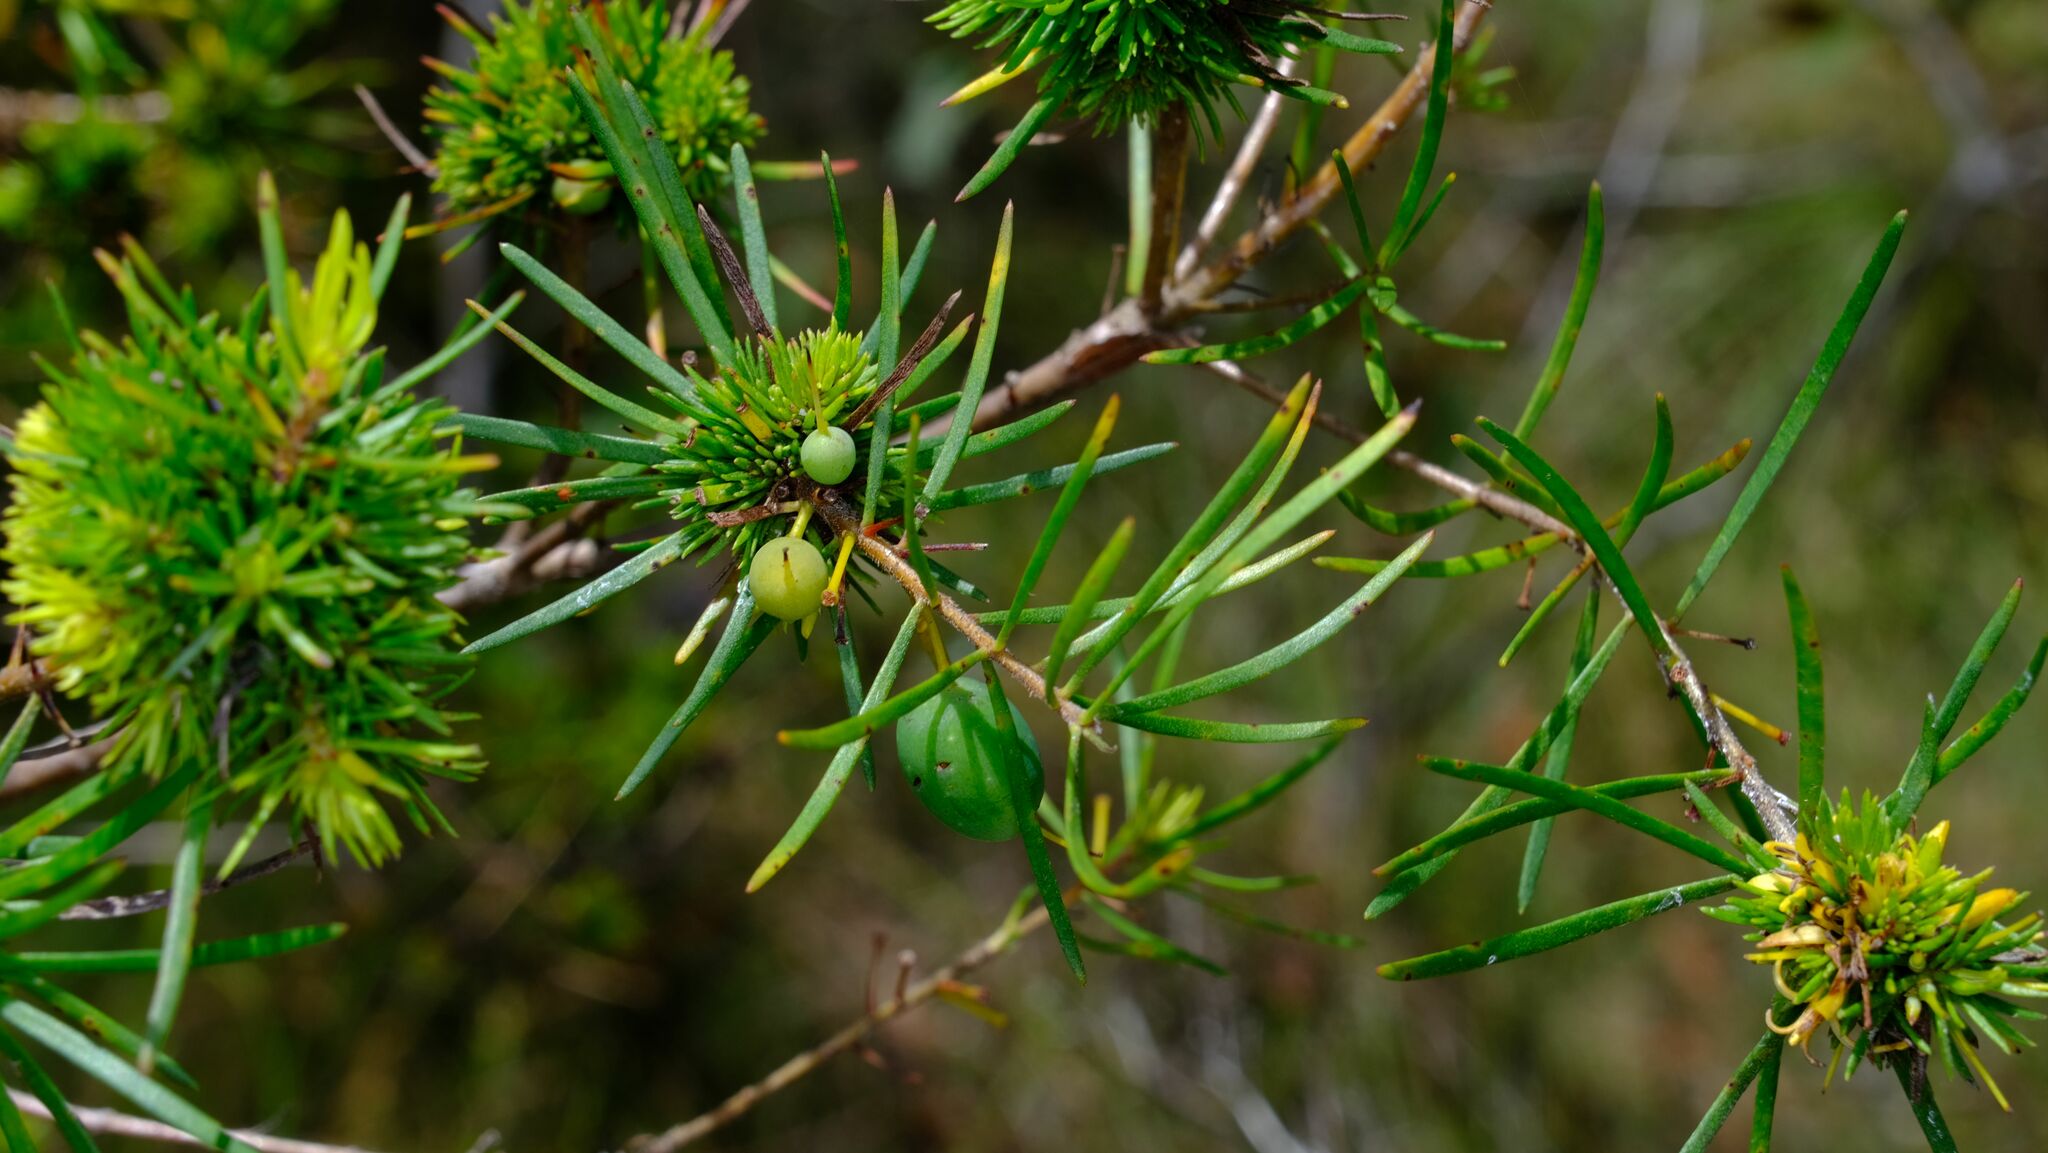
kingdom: Plantae
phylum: Tracheophyta
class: Magnoliopsida
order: Proteales
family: Proteaceae
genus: Persoonia
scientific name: Persoonia virgata
